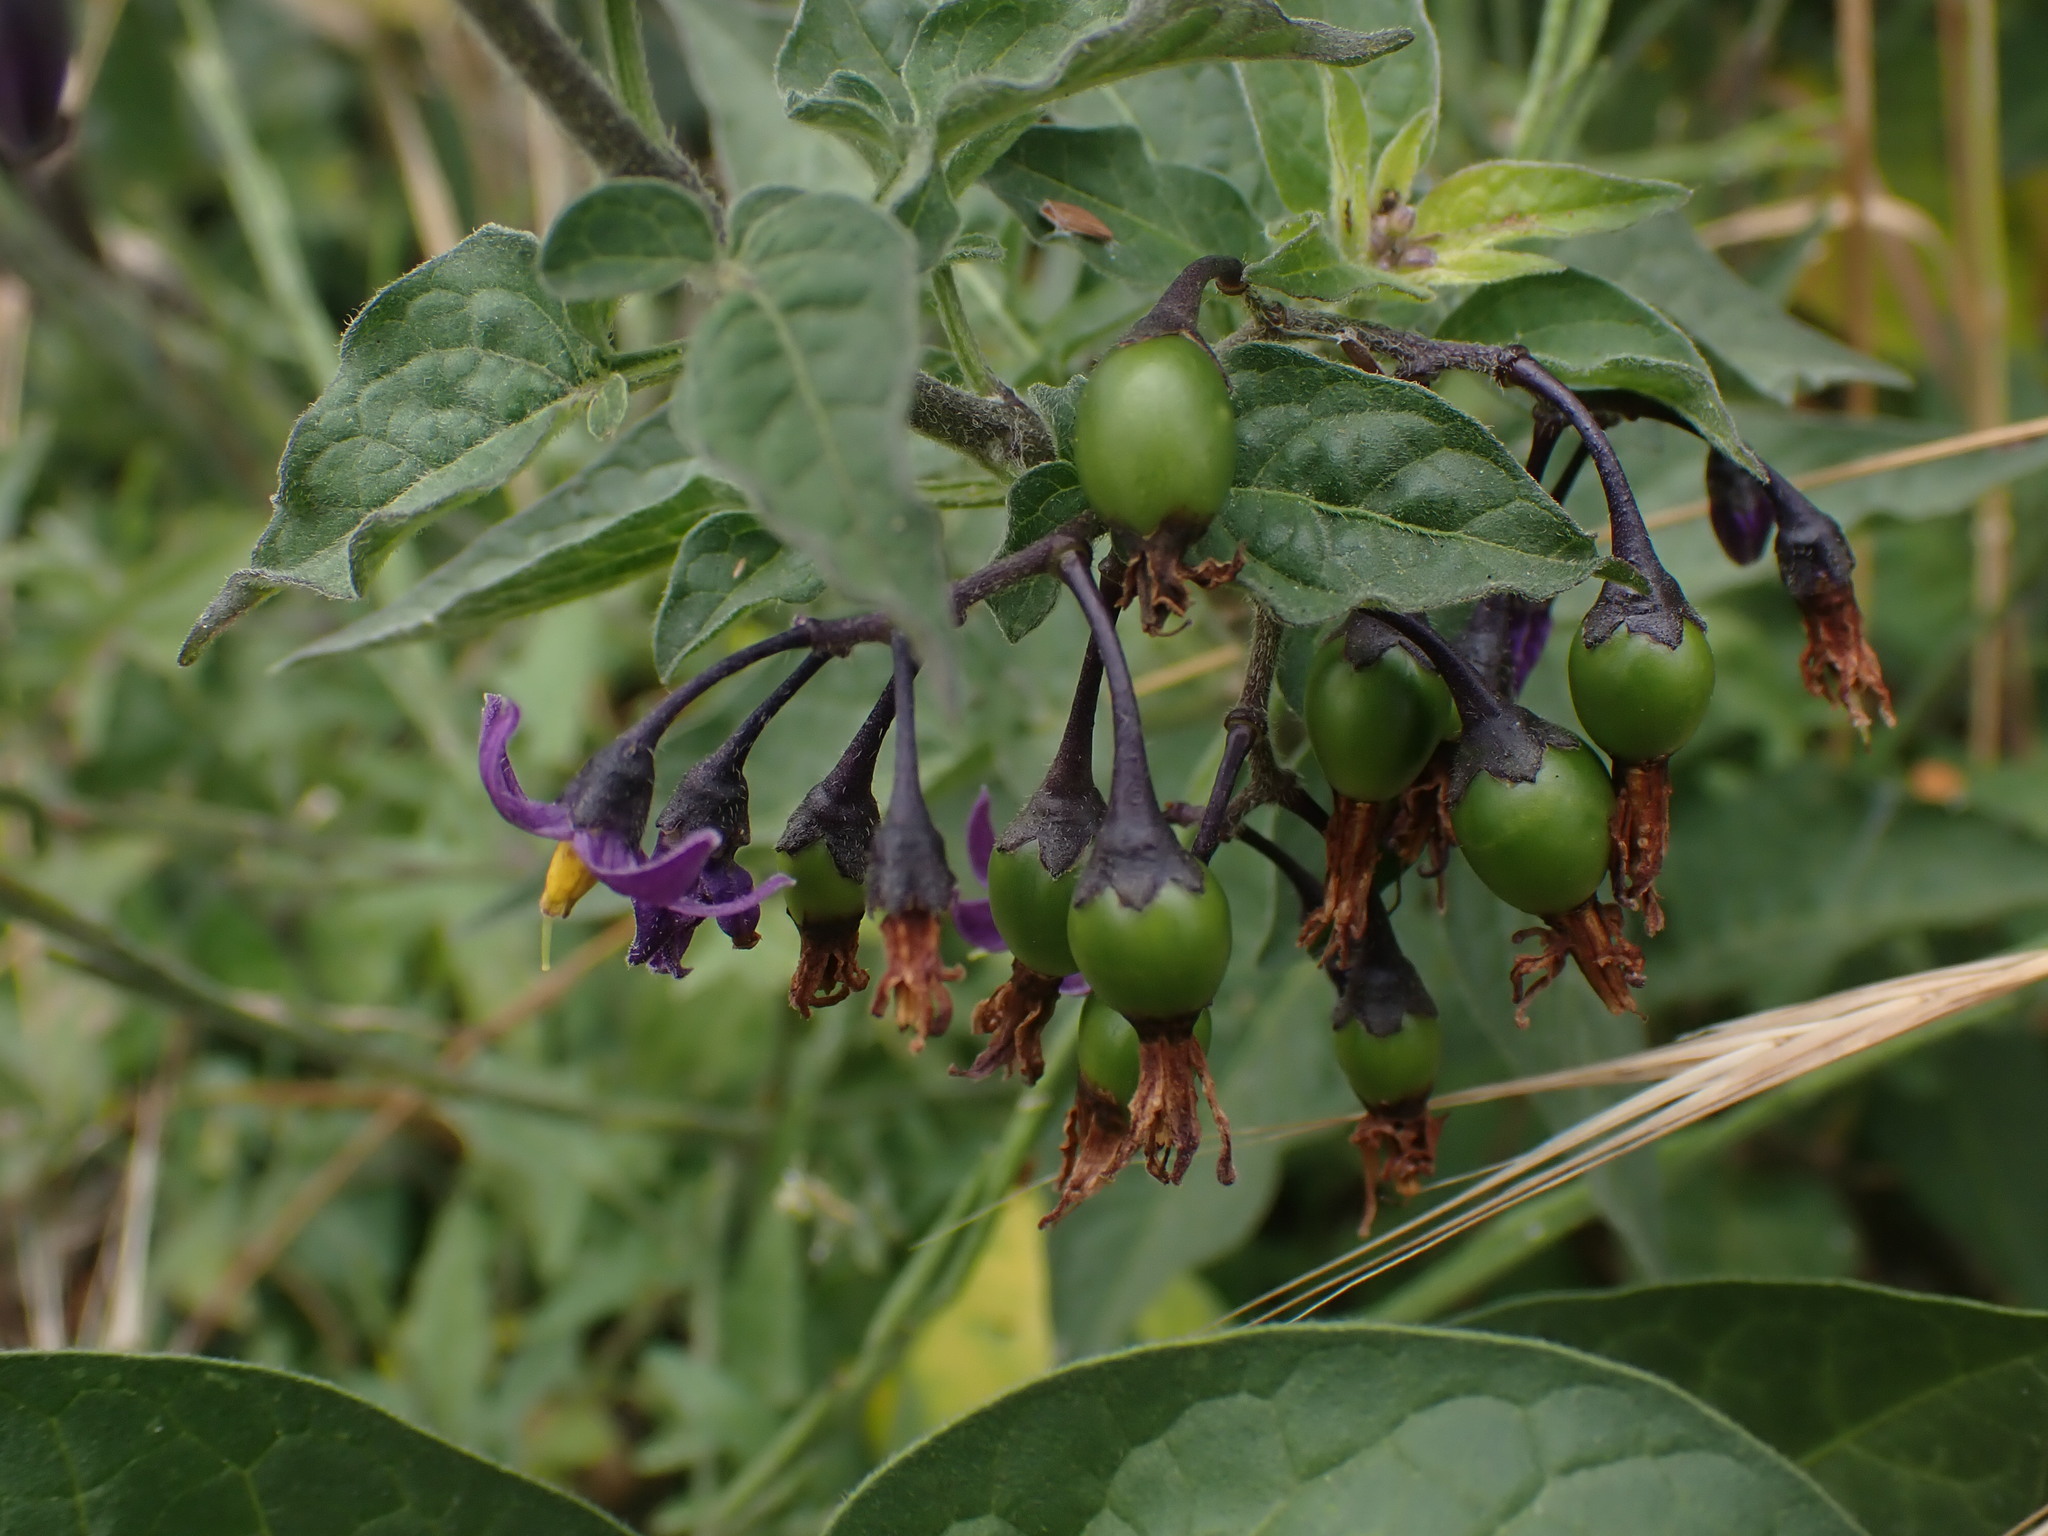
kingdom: Plantae
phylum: Tracheophyta
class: Magnoliopsida
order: Solanales
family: Solanaceae
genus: Solanum
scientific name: Solanum dulcamara
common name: Climbing nightshade
